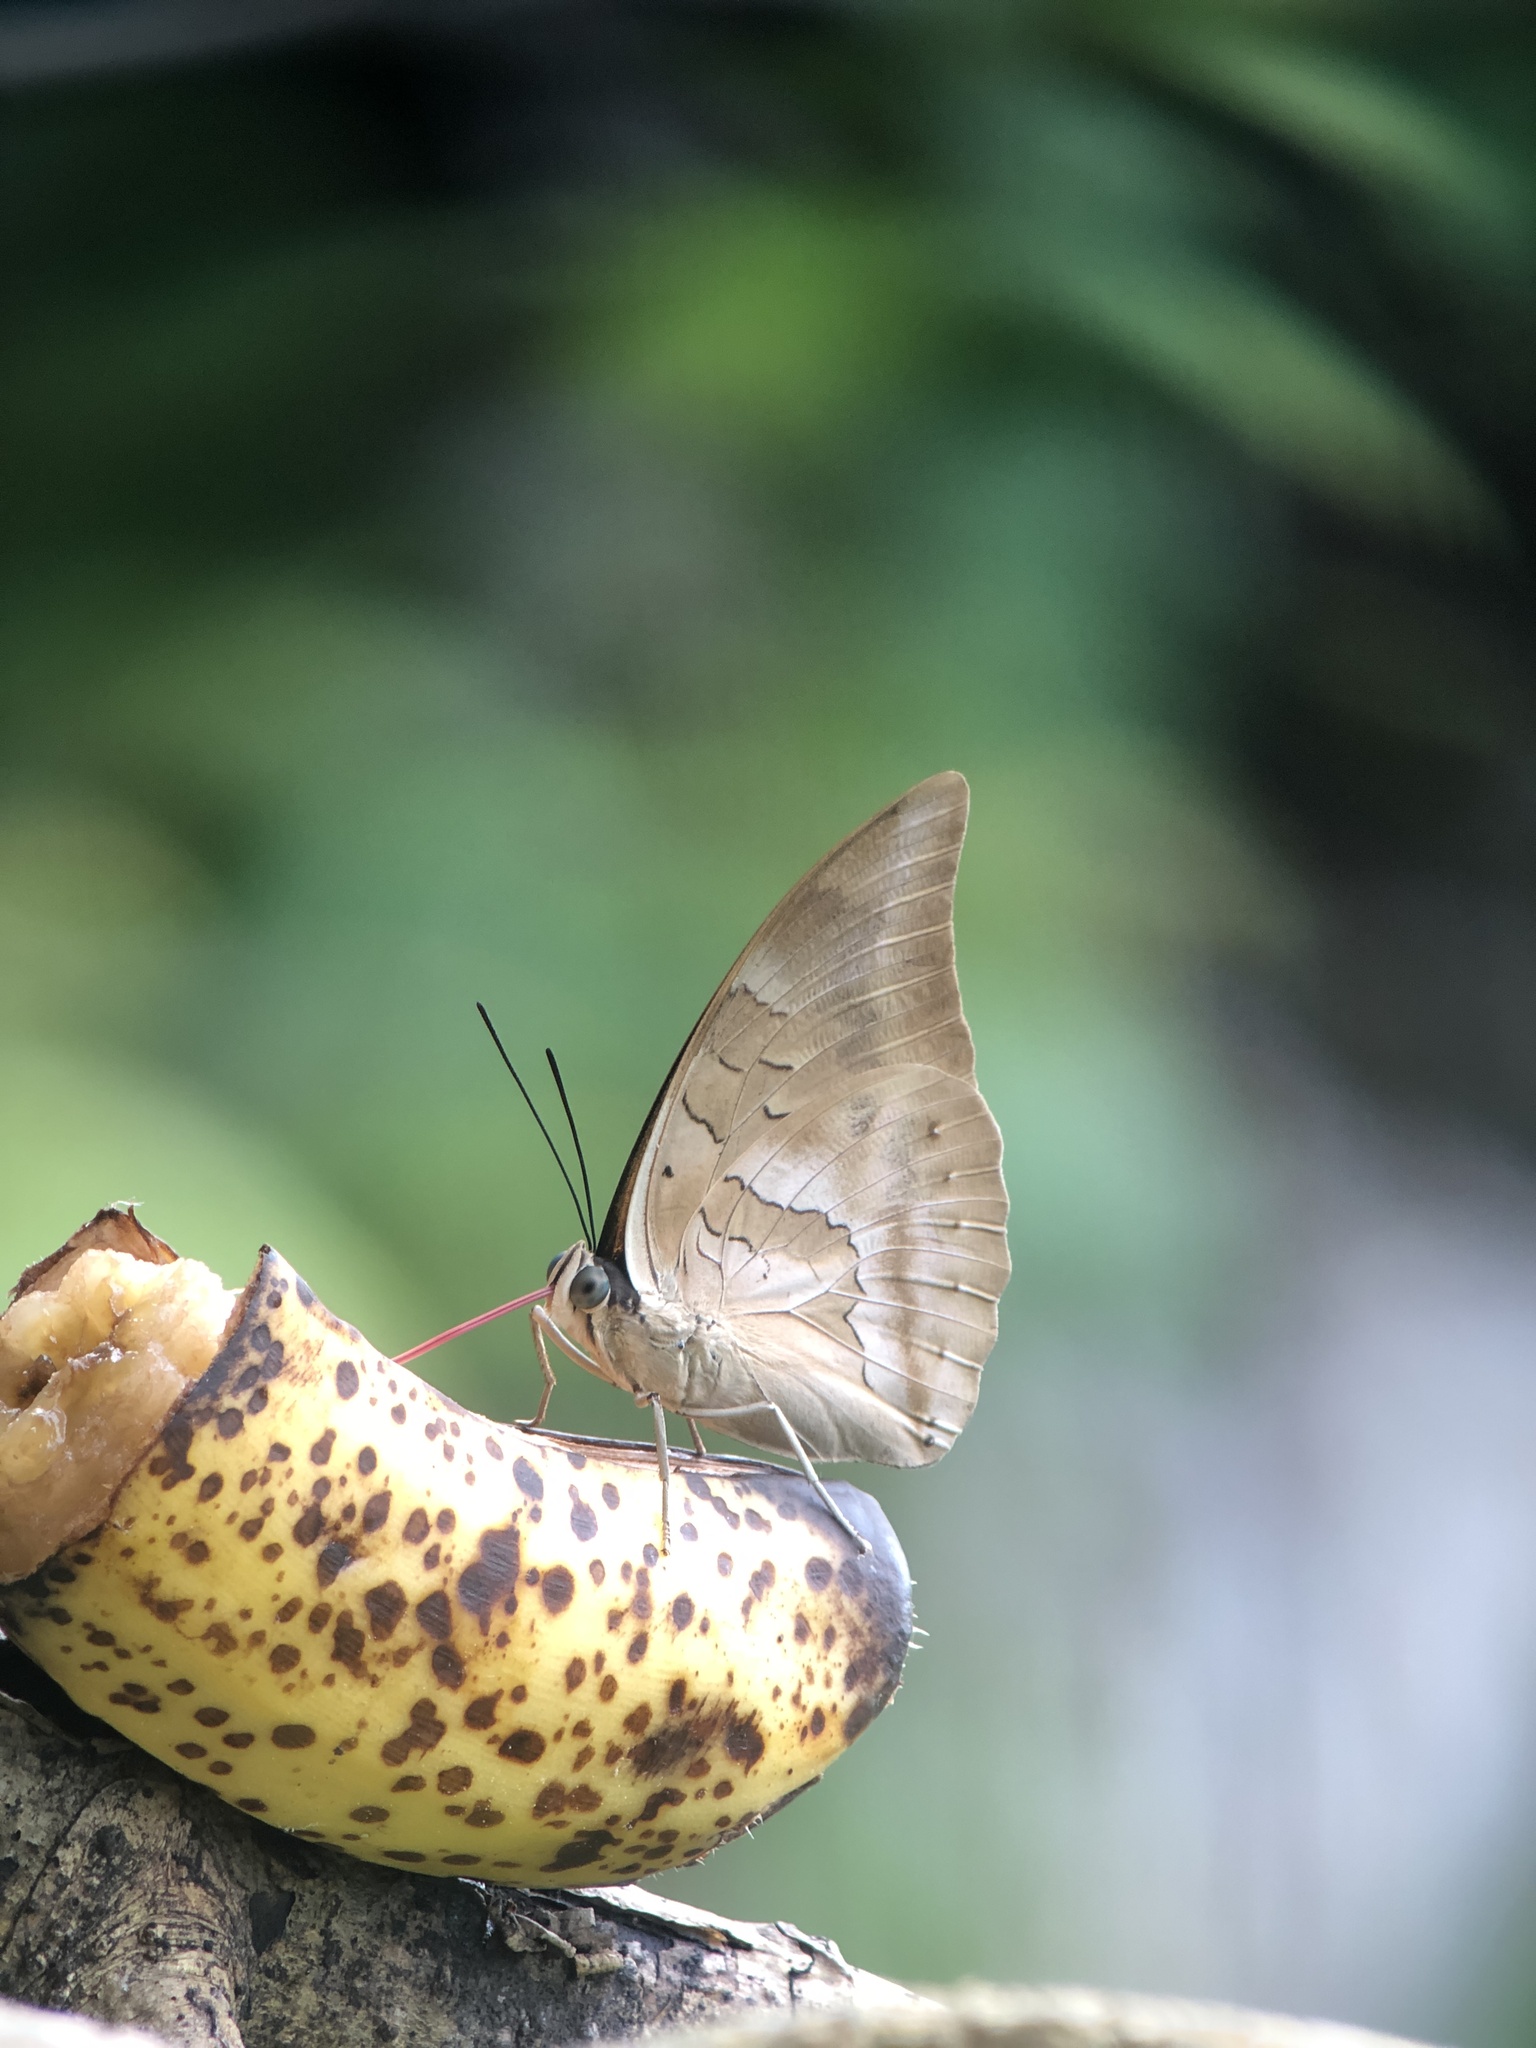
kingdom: Animalia
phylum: Arthropoda
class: Insecta
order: Lepidoptera
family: Nymphalidae
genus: Prepona
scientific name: Prepona demophon
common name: One-spotted prepona
